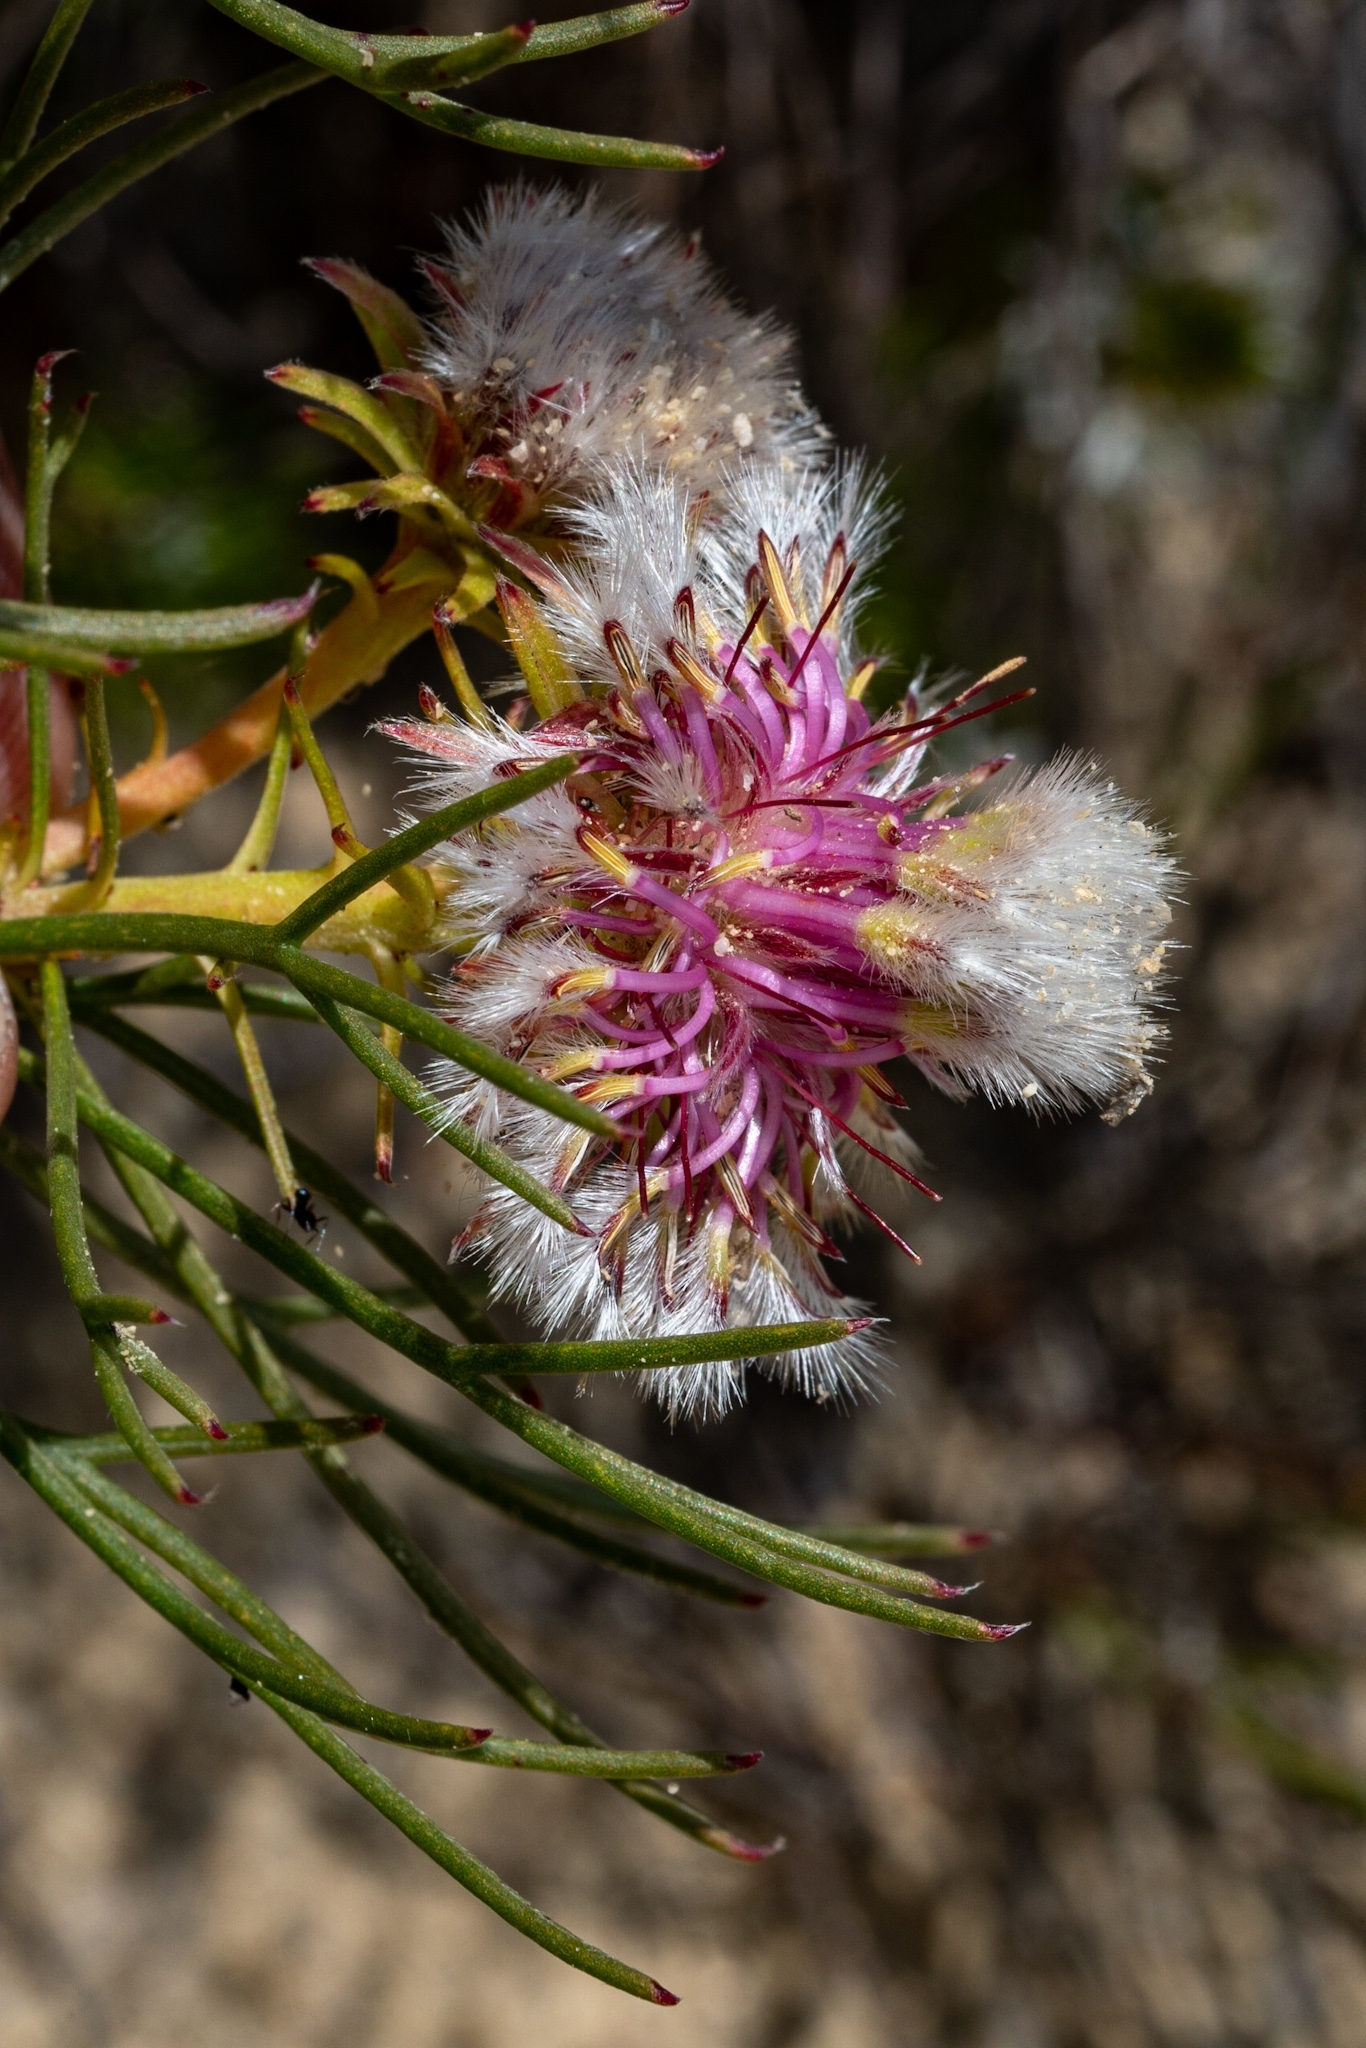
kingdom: Plantae
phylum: Tracheophyta
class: Magnoliopsida
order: Proteales
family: Proteaceae
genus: Serruria
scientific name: Serruria phylicoides
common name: Bearded spiderhead
